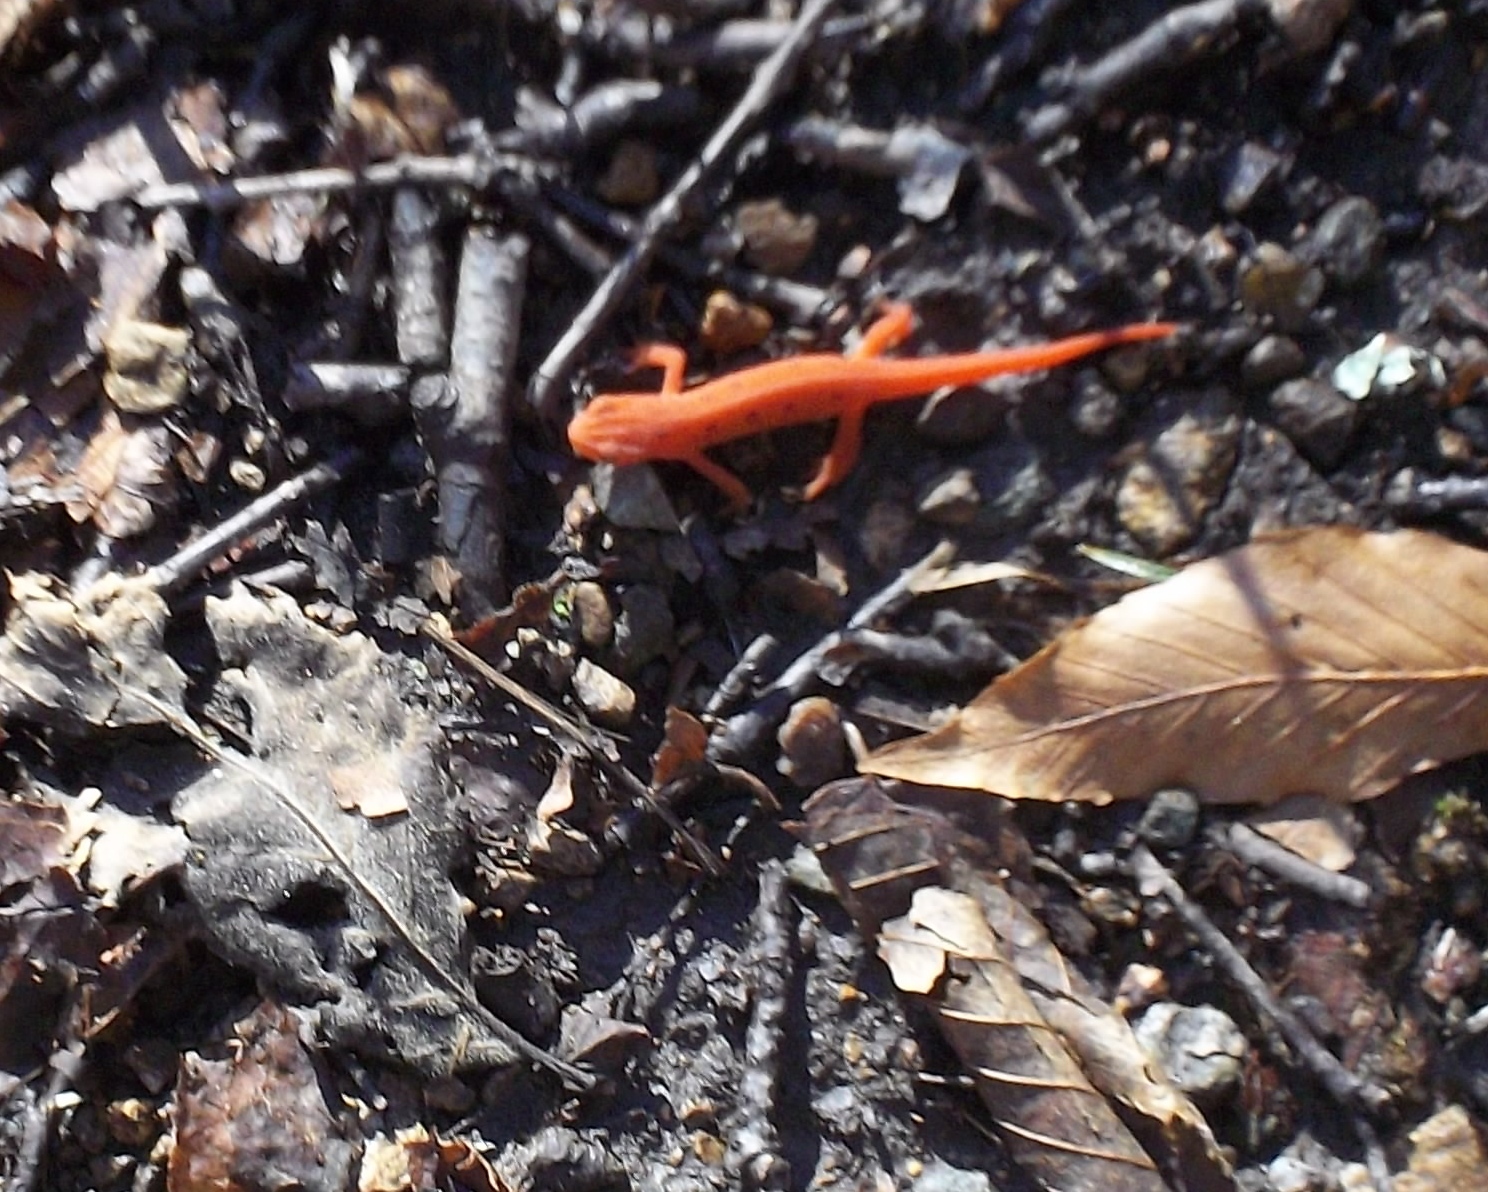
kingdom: Animalia
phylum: Chordata
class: Amphibia
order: Caudata
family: Salamandridae
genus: Notophthalmus
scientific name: Notophthalmus viridescens
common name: Eastern newt
